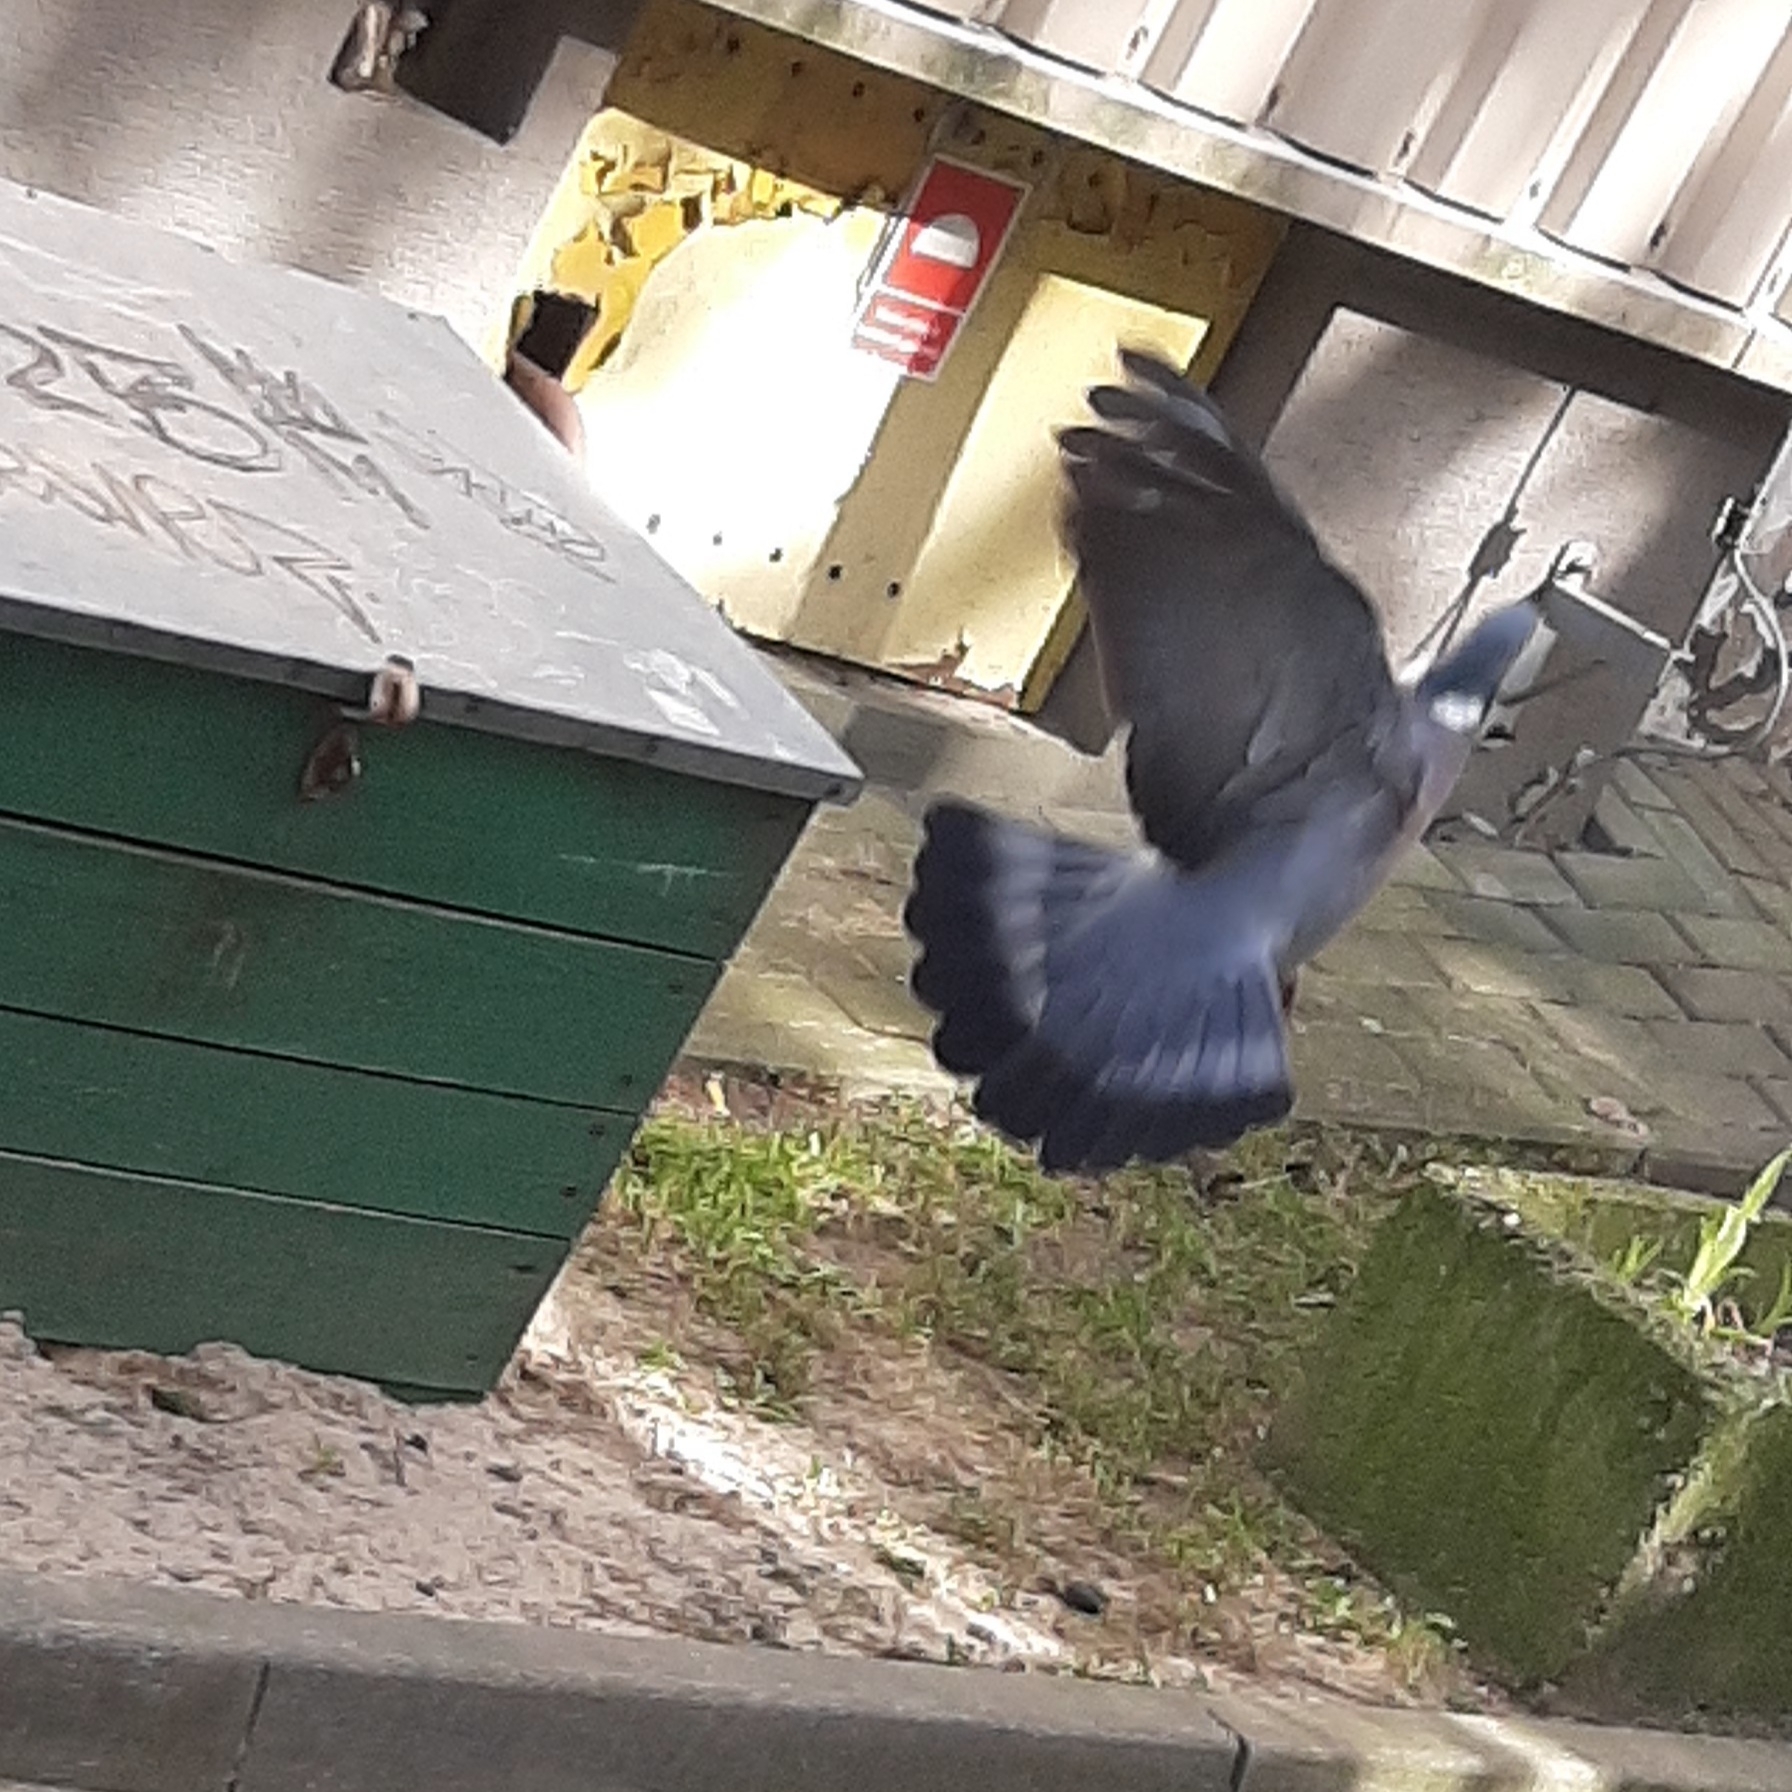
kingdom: Animalia
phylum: Chordata
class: Aves
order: Columbiformes
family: Columbidae
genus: Columba
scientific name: Columba palumbus
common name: Common wood pigeon
